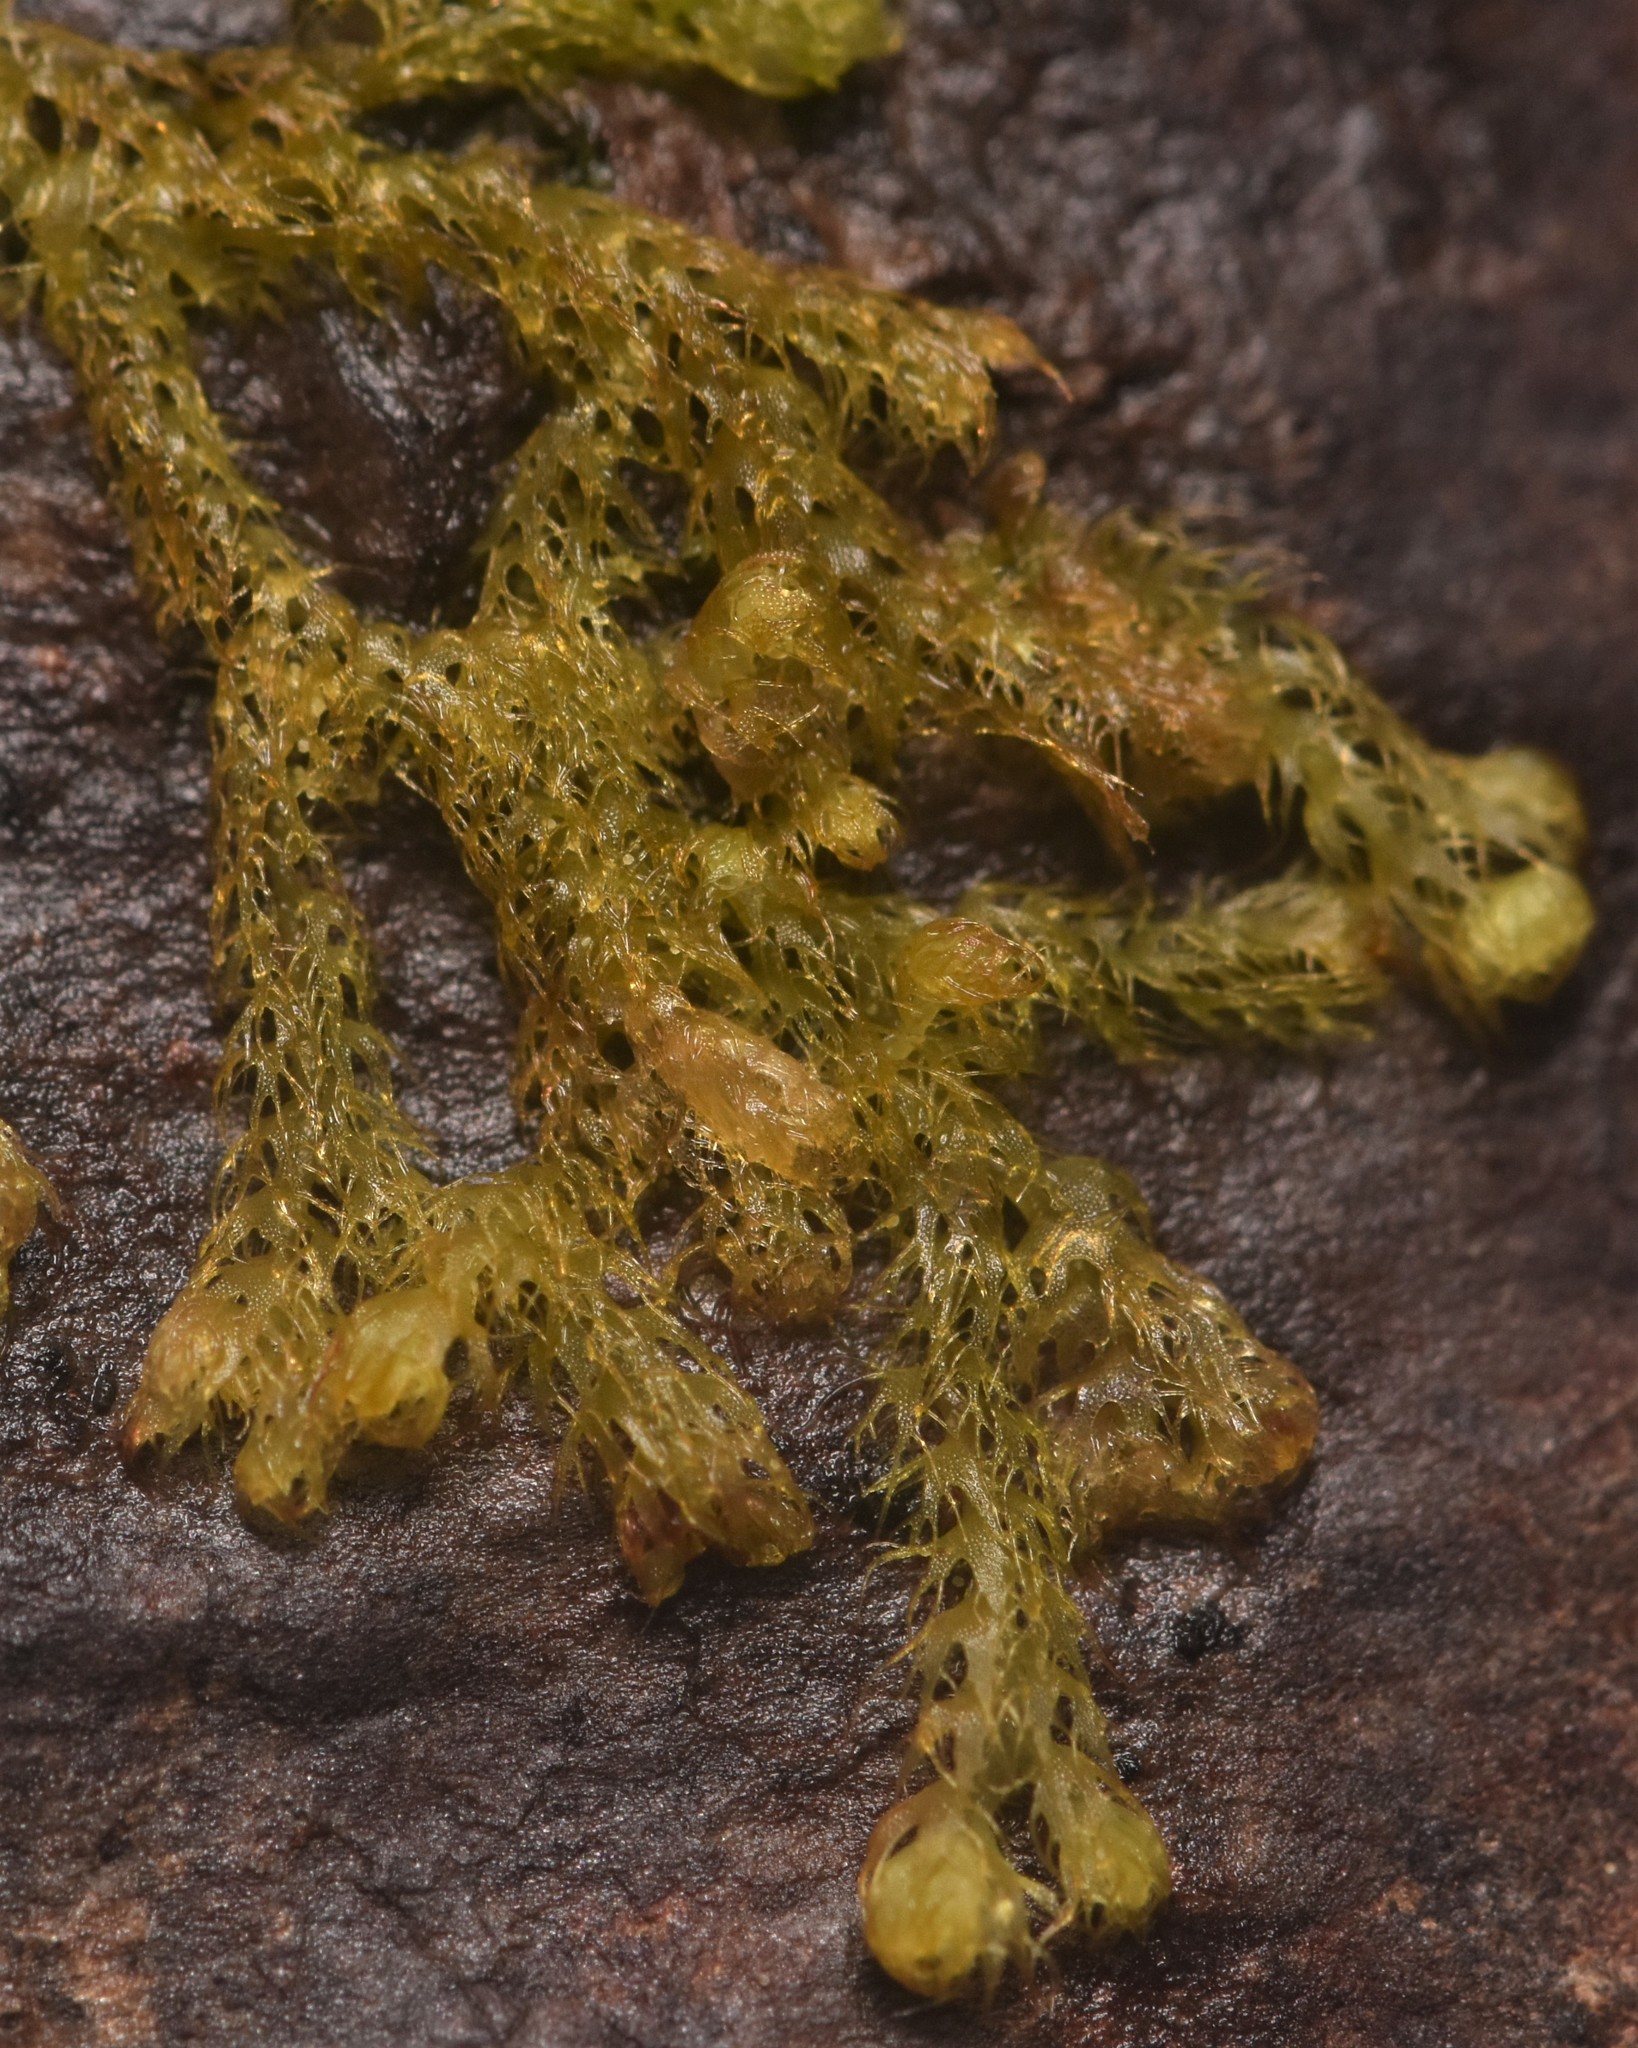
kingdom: Plantae
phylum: Marchantiophyta
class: Jungermanniopsida
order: Ptilidiales
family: Ptilidiaceae
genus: Ptilidium
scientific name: Ptilidium californicum
